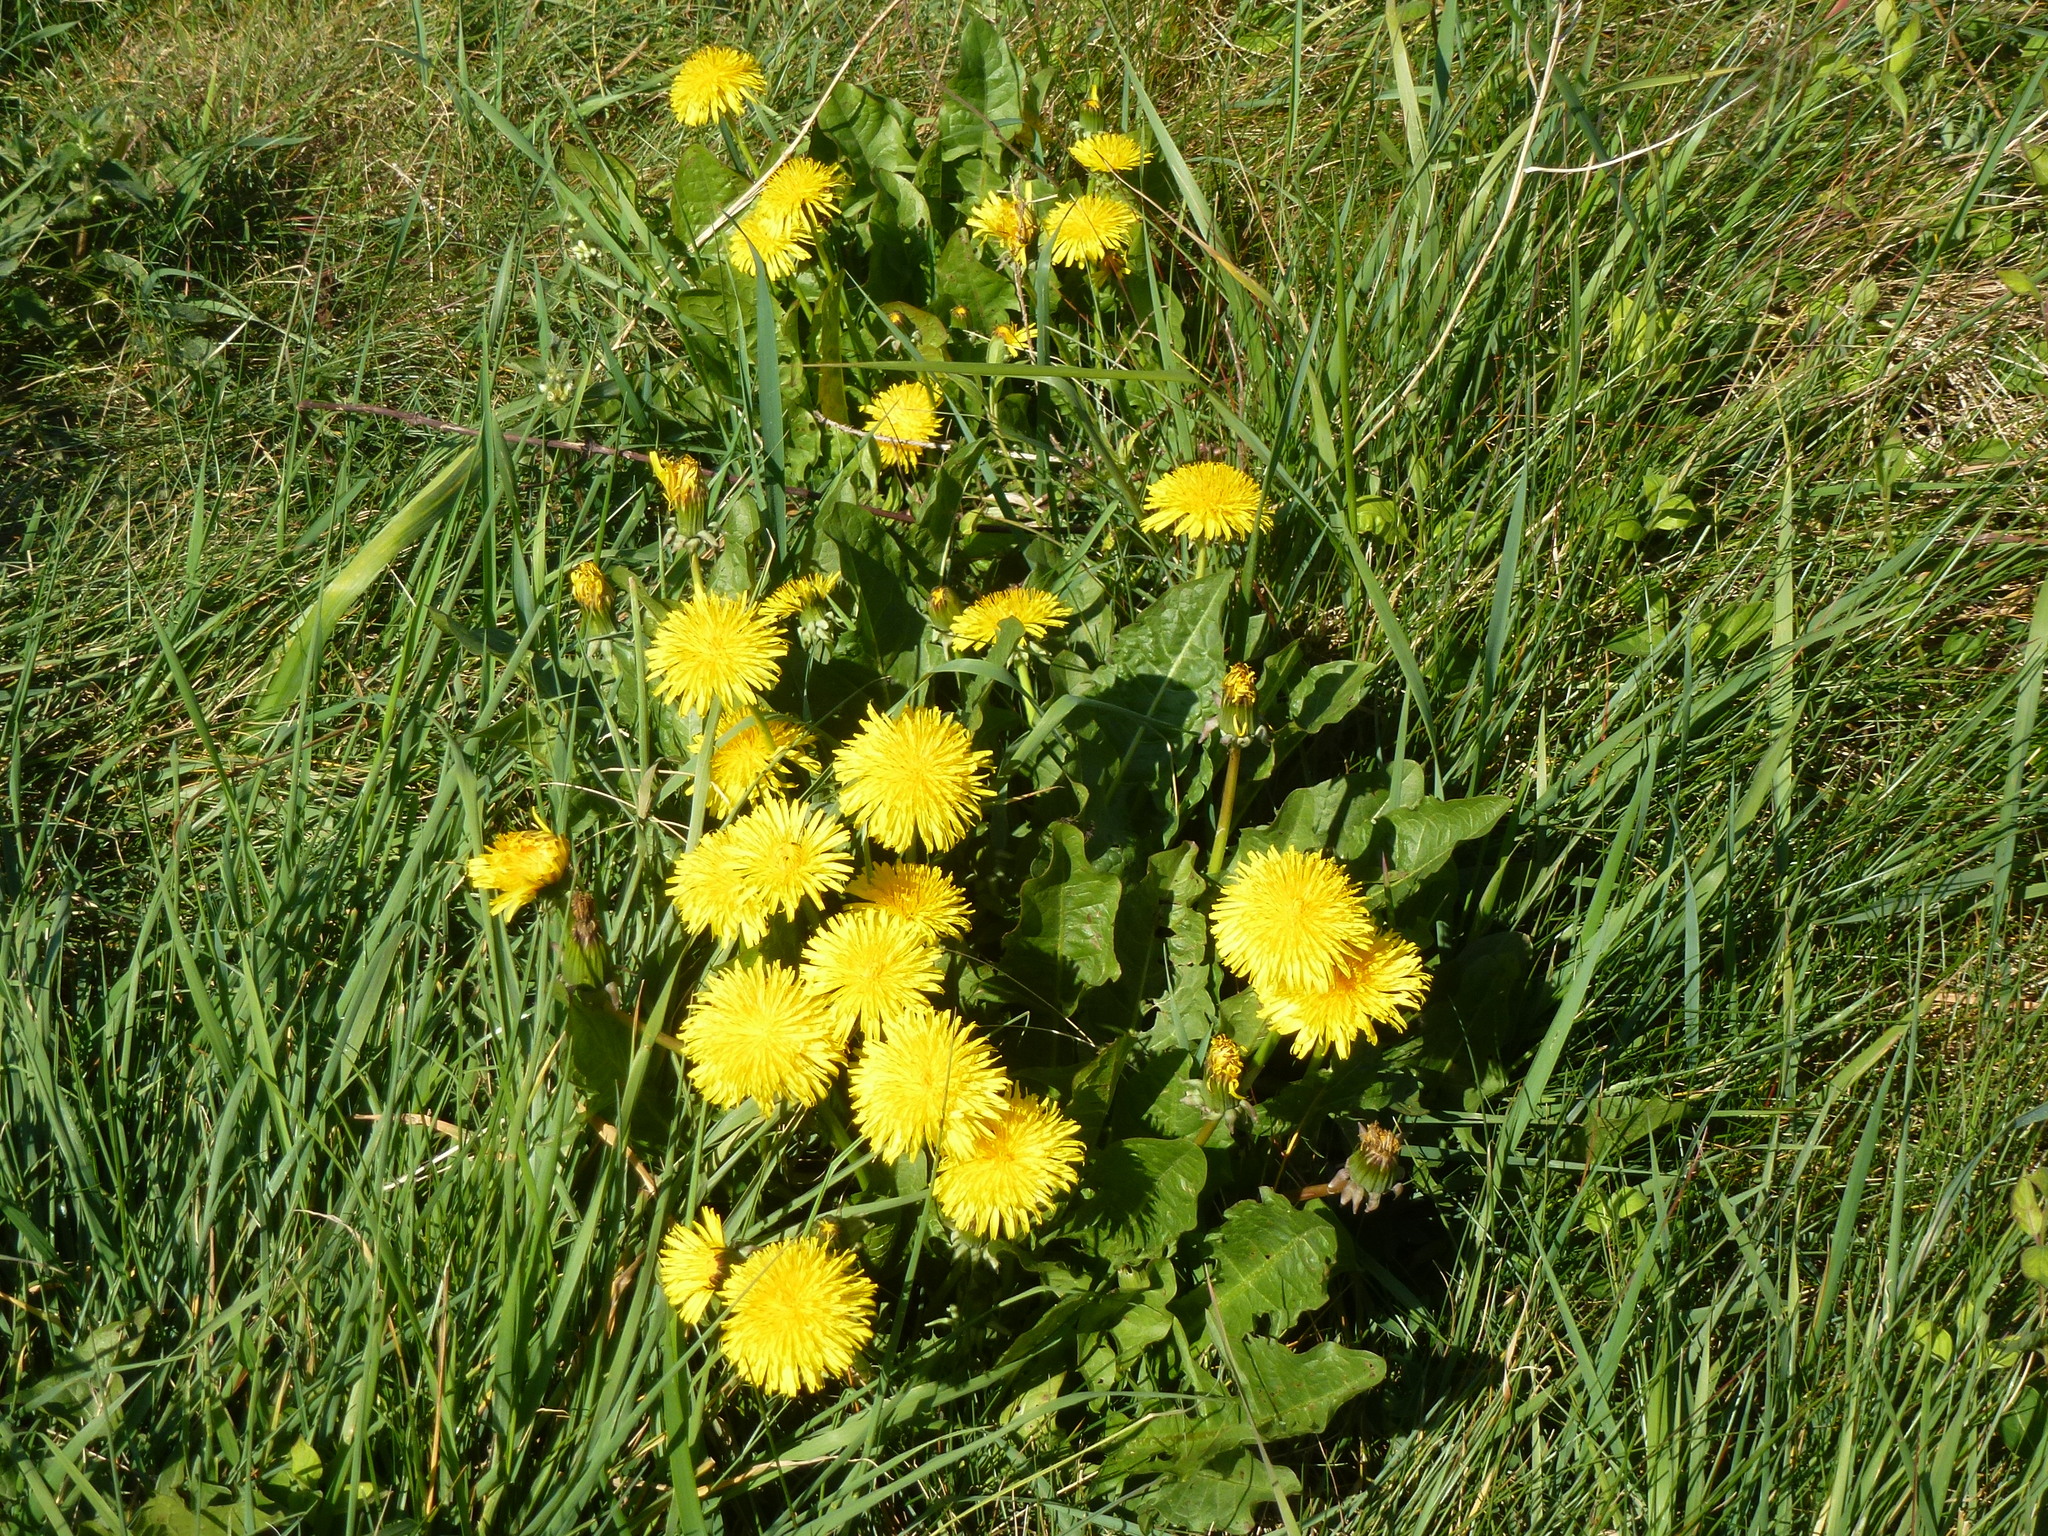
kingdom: Plantae
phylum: Tracheophyta
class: Magnoliopsida
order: Asterales
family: Asteraceae
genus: Taraxacum
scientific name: Taraxacum officinale
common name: Common dandelion
